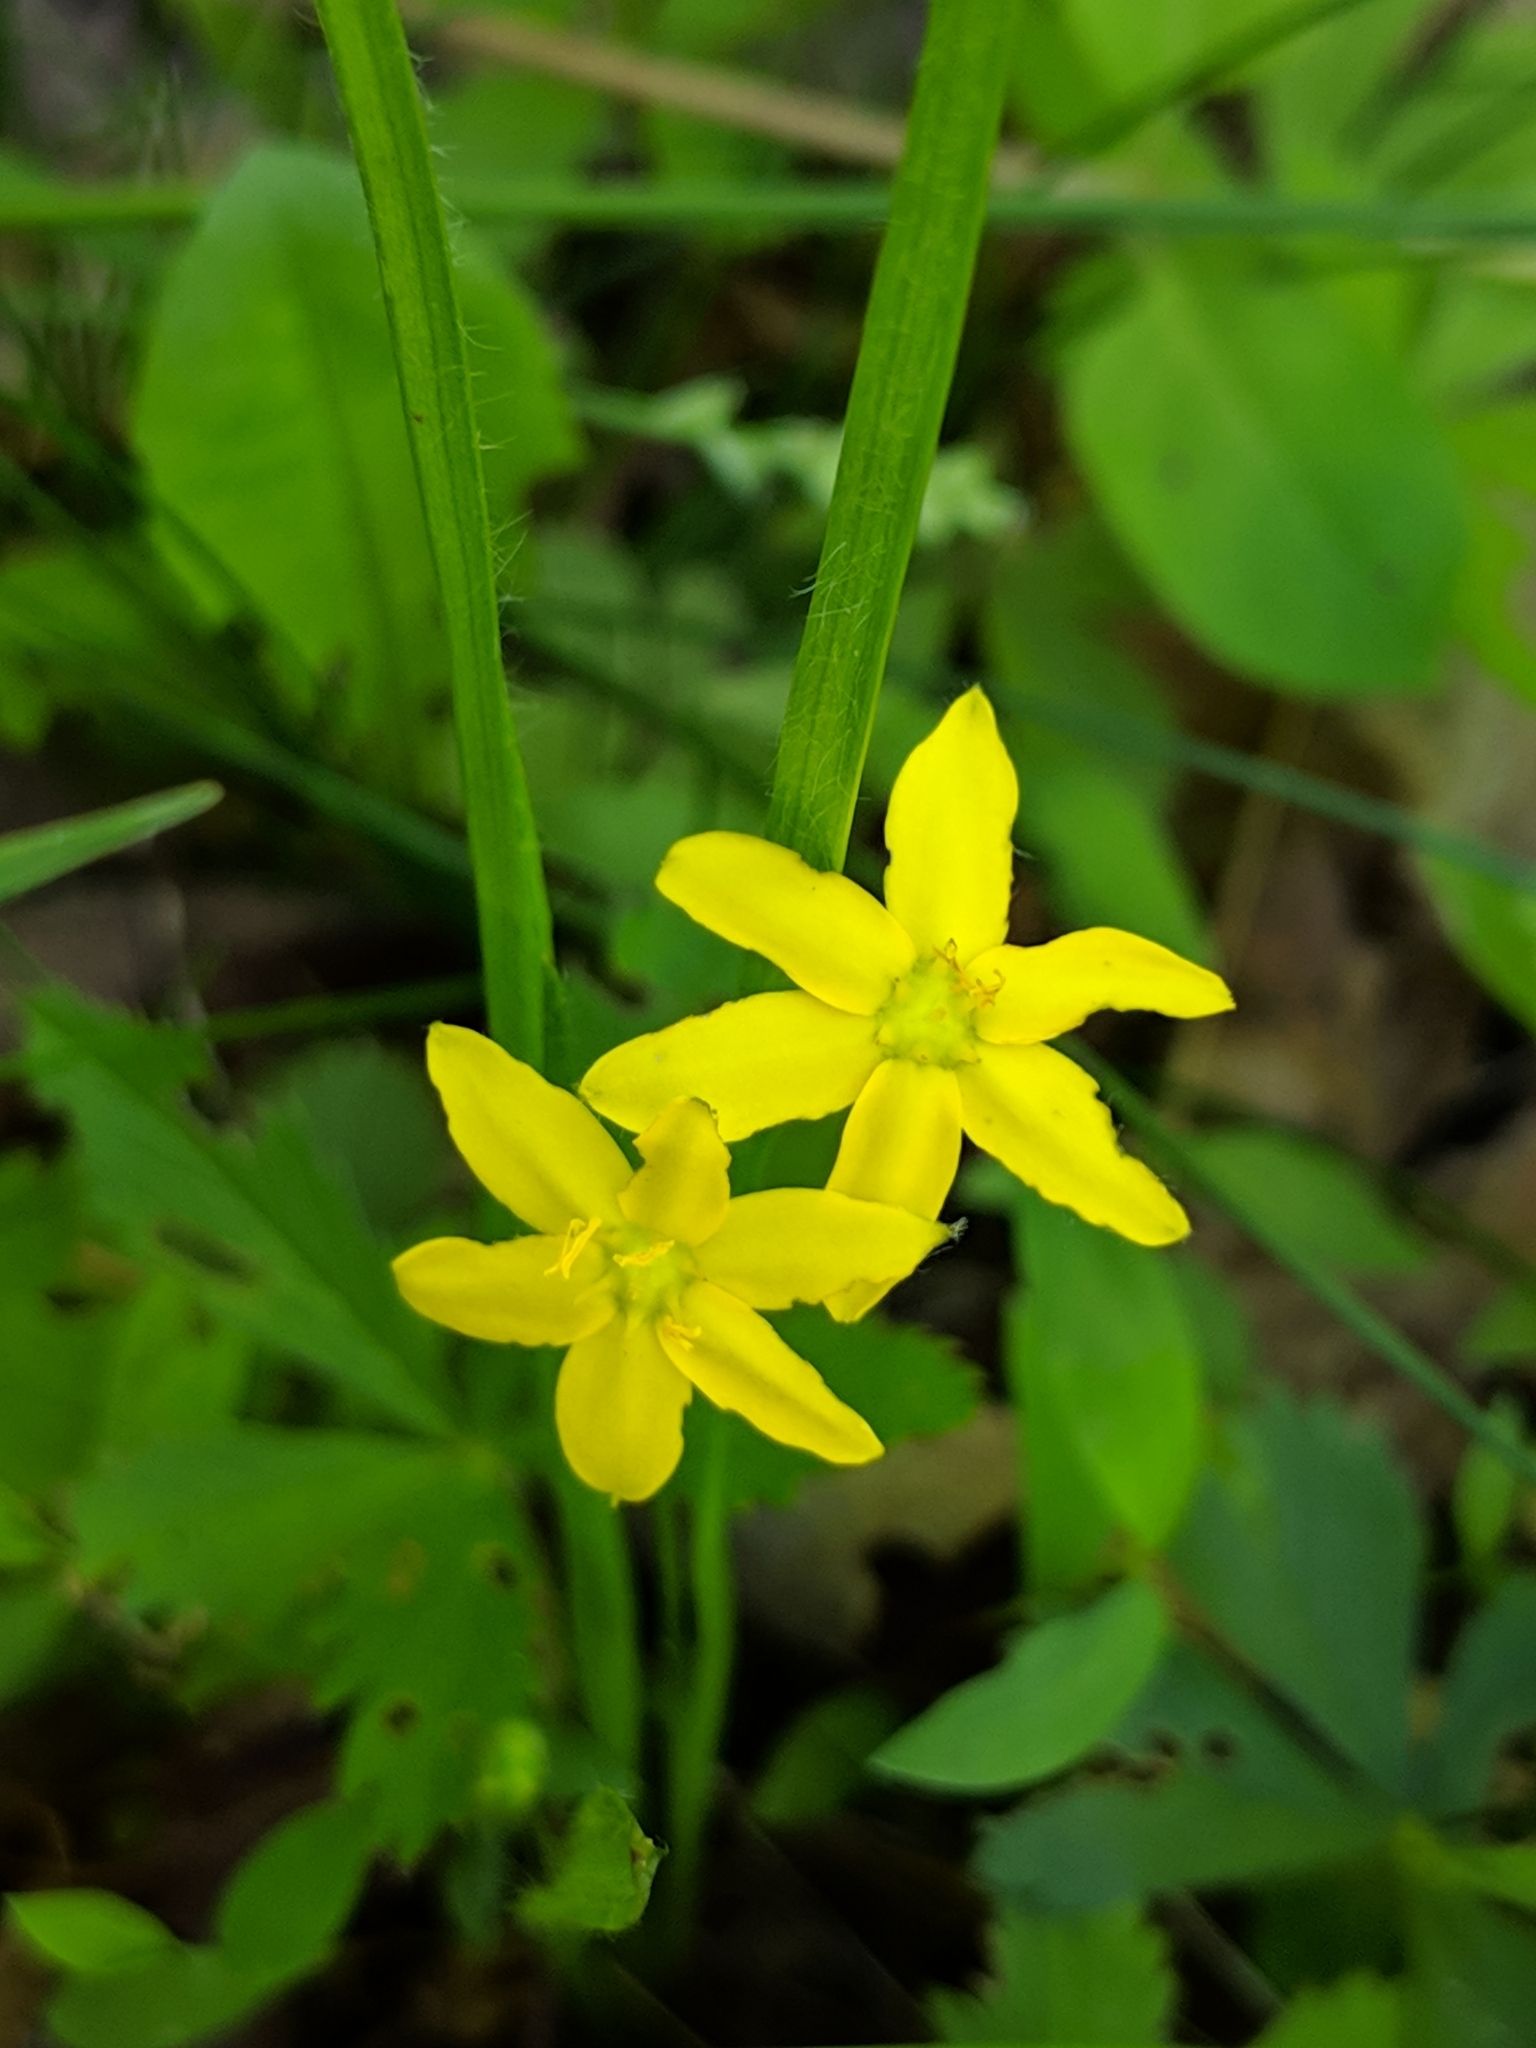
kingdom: Plantae
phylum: Tracheophyta
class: Liliopsida
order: Asparagales
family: Hypoxidaceae
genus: Hypoxis
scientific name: Hypoxis hirsuta
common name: Common goldstar
